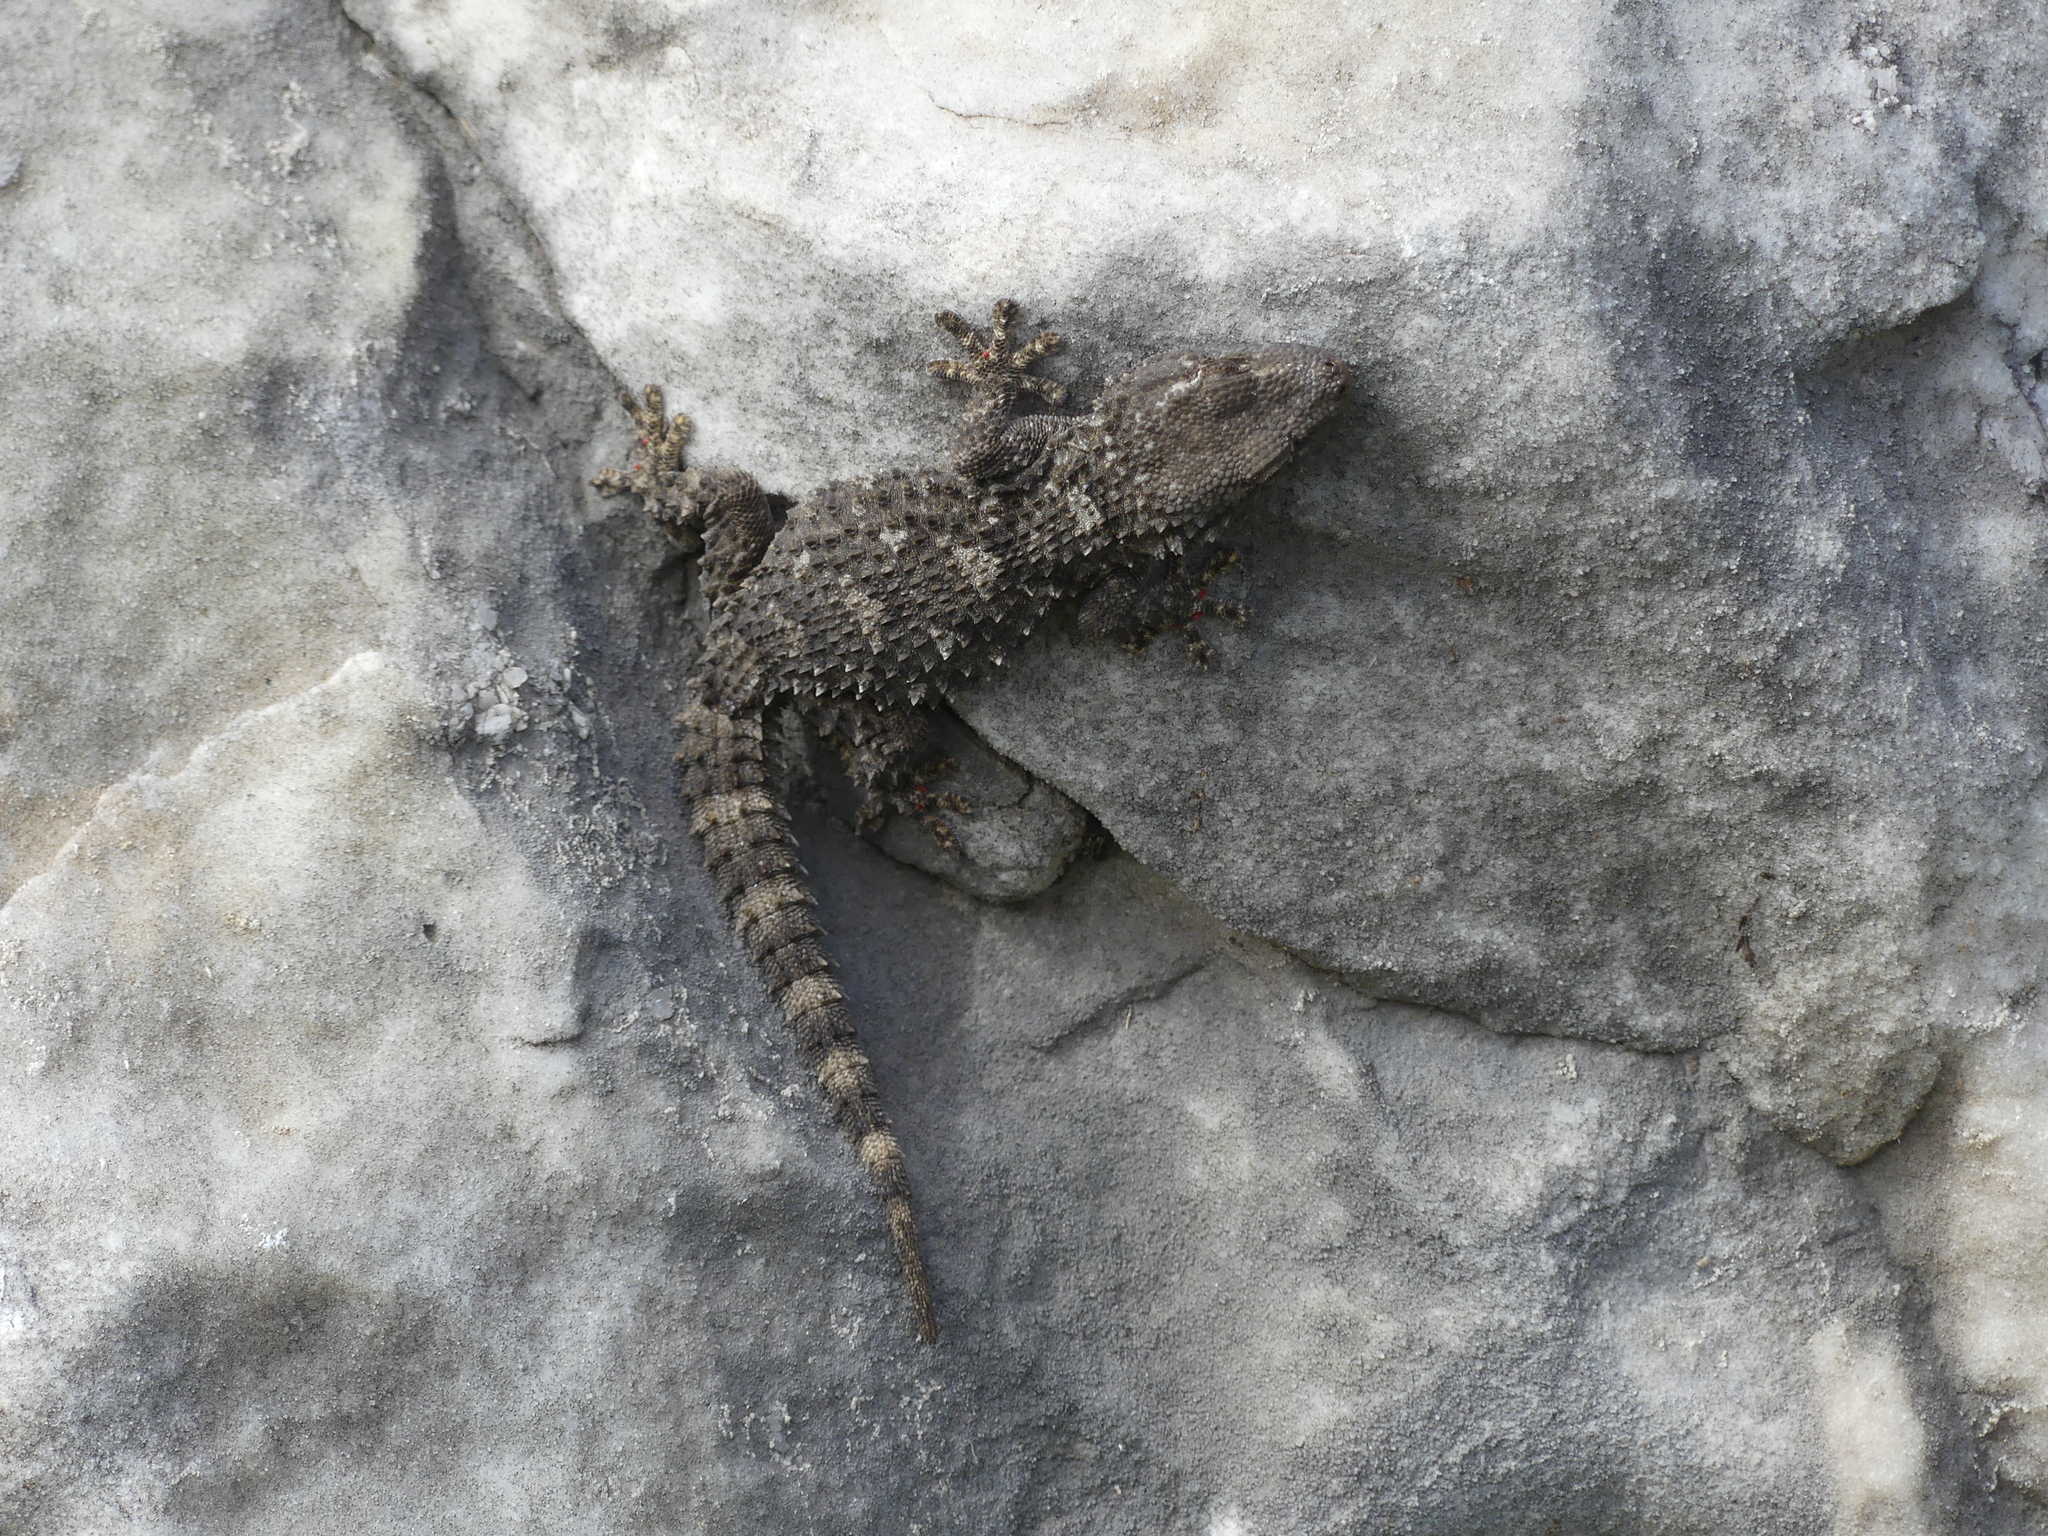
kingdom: Animalia
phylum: Chordata
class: Squamata
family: Phyllodactylidae
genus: Tarentola
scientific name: Tarentola mauritanica
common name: Moorish gecko
